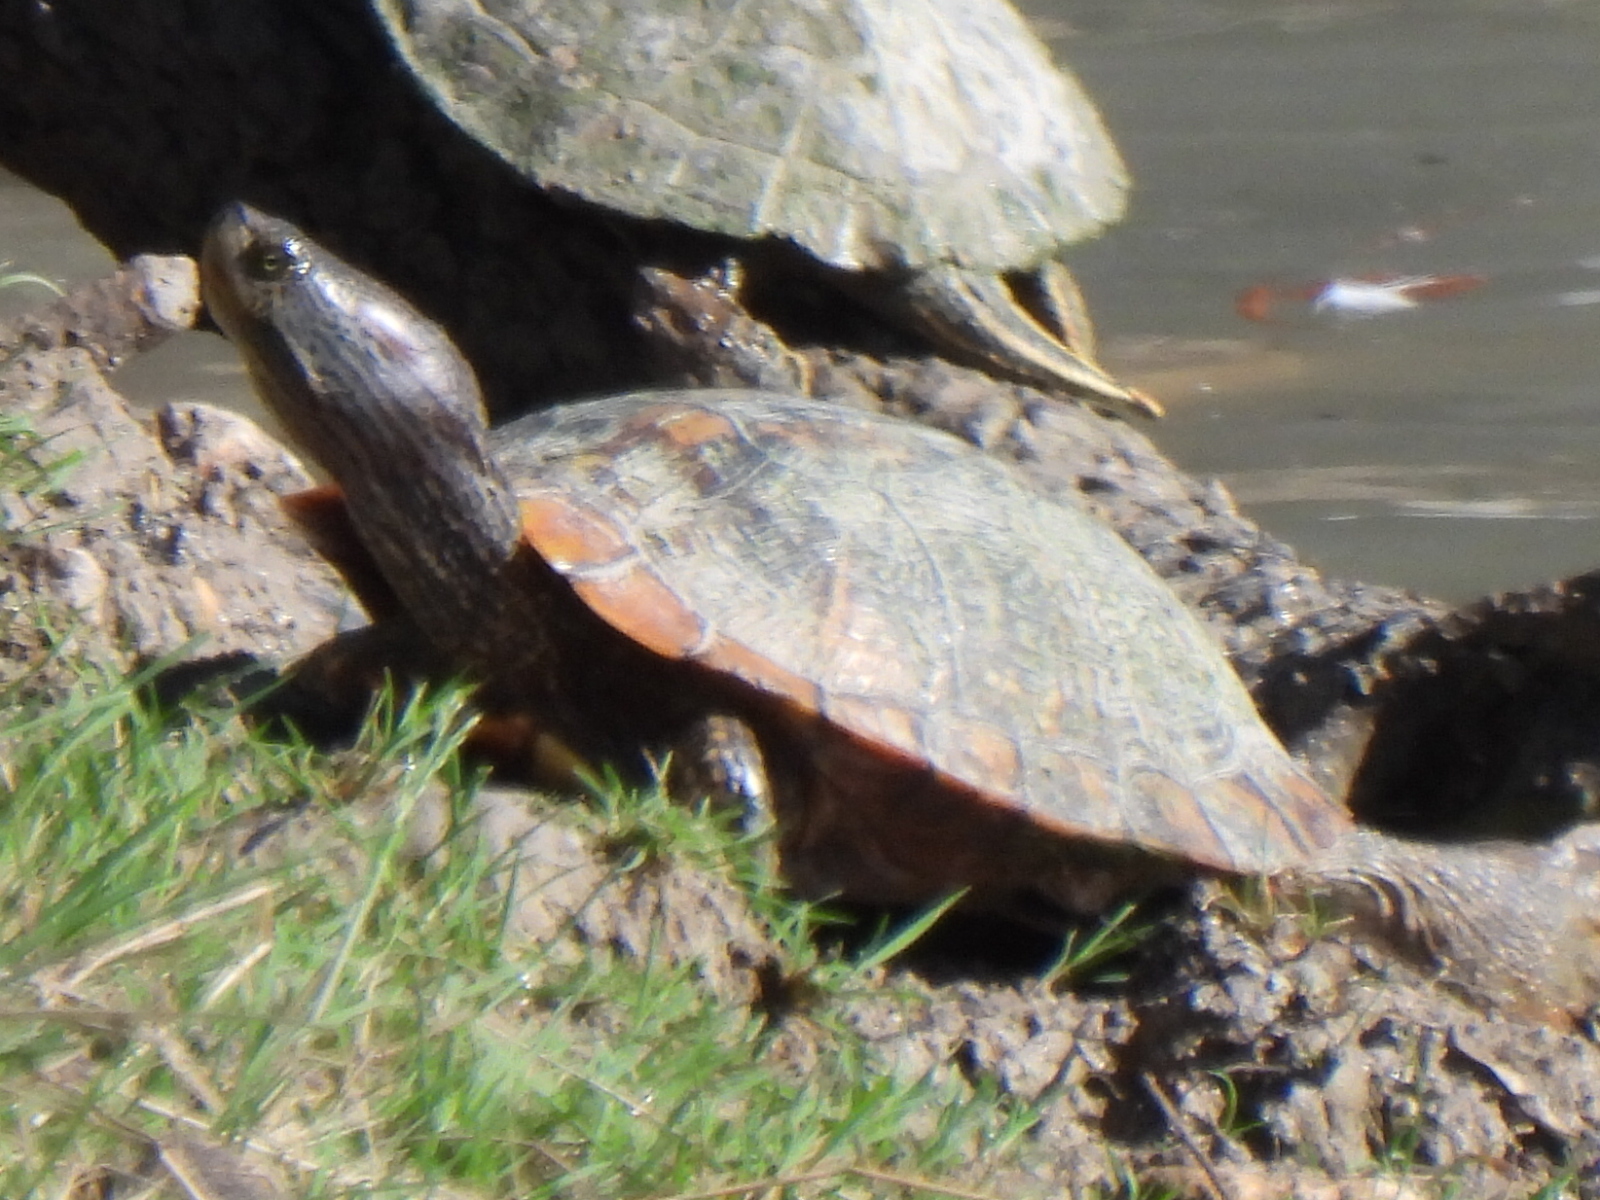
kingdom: Animalia
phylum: Chordata
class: Testudines
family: Emydidae
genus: Trachemys
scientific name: Trachemys scripta
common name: Slider
